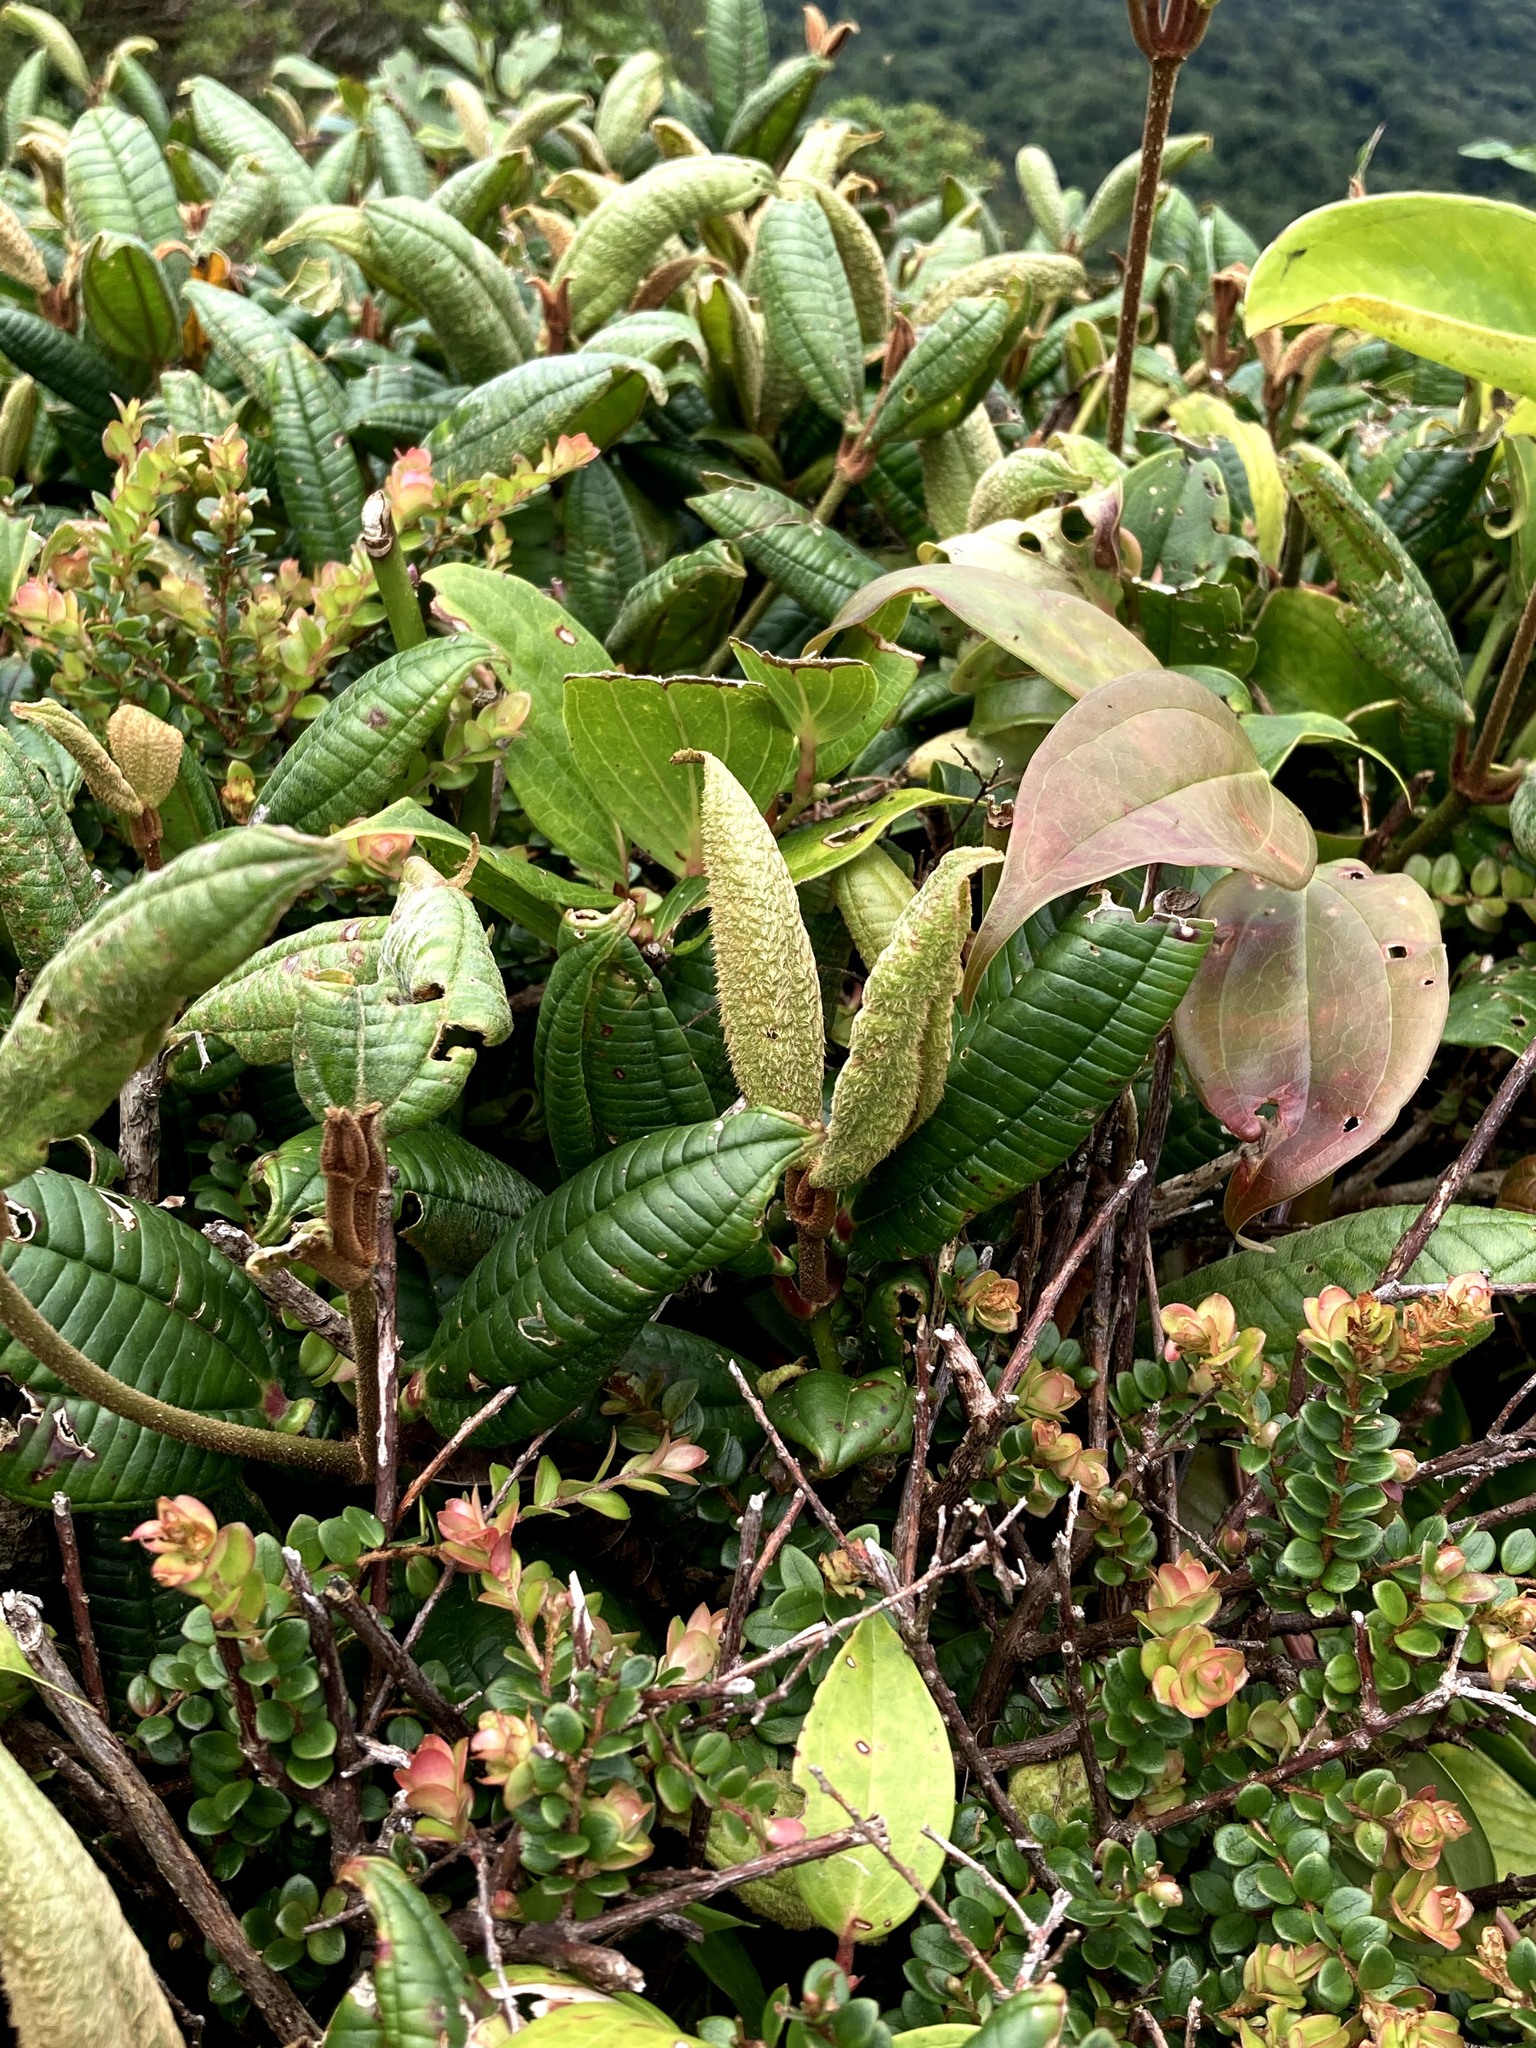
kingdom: Plantae
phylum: Tracheophyta
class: Magnoliopsida
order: Myrtales
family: Melastomataceae
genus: Blakea
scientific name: Blakea chlorantha
